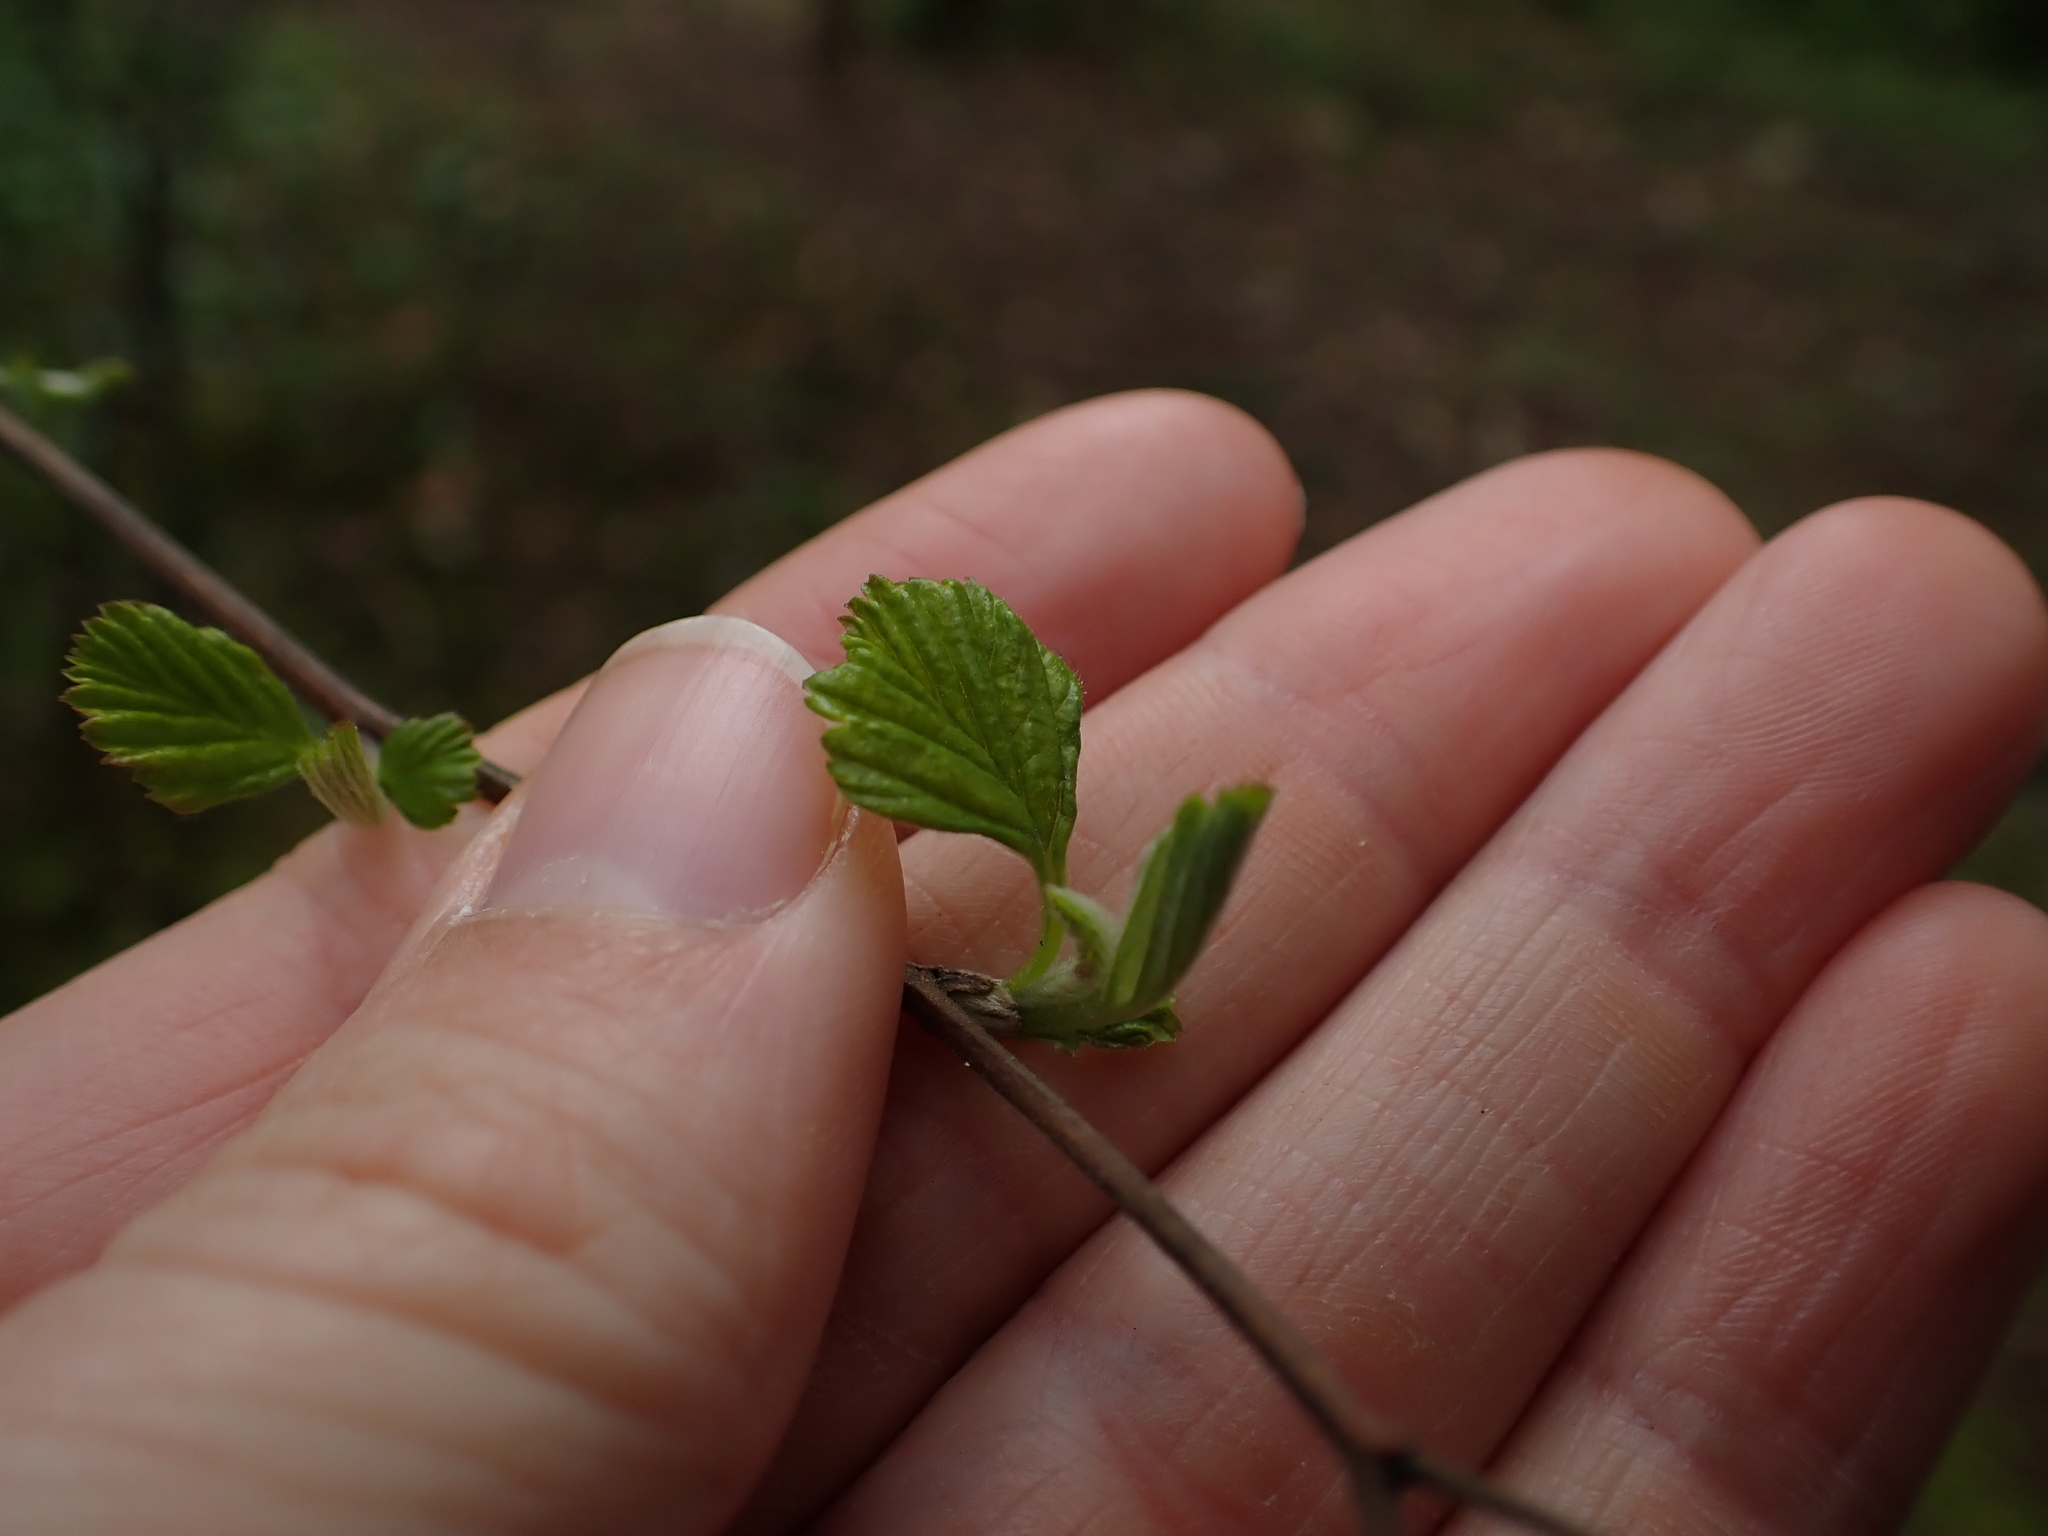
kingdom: Plantae
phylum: Tracheophyta
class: Magnoliopsida
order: Rosales
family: Rosaceae
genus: Holodiscus
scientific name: Holodiscus discolor
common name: Oceanspray
